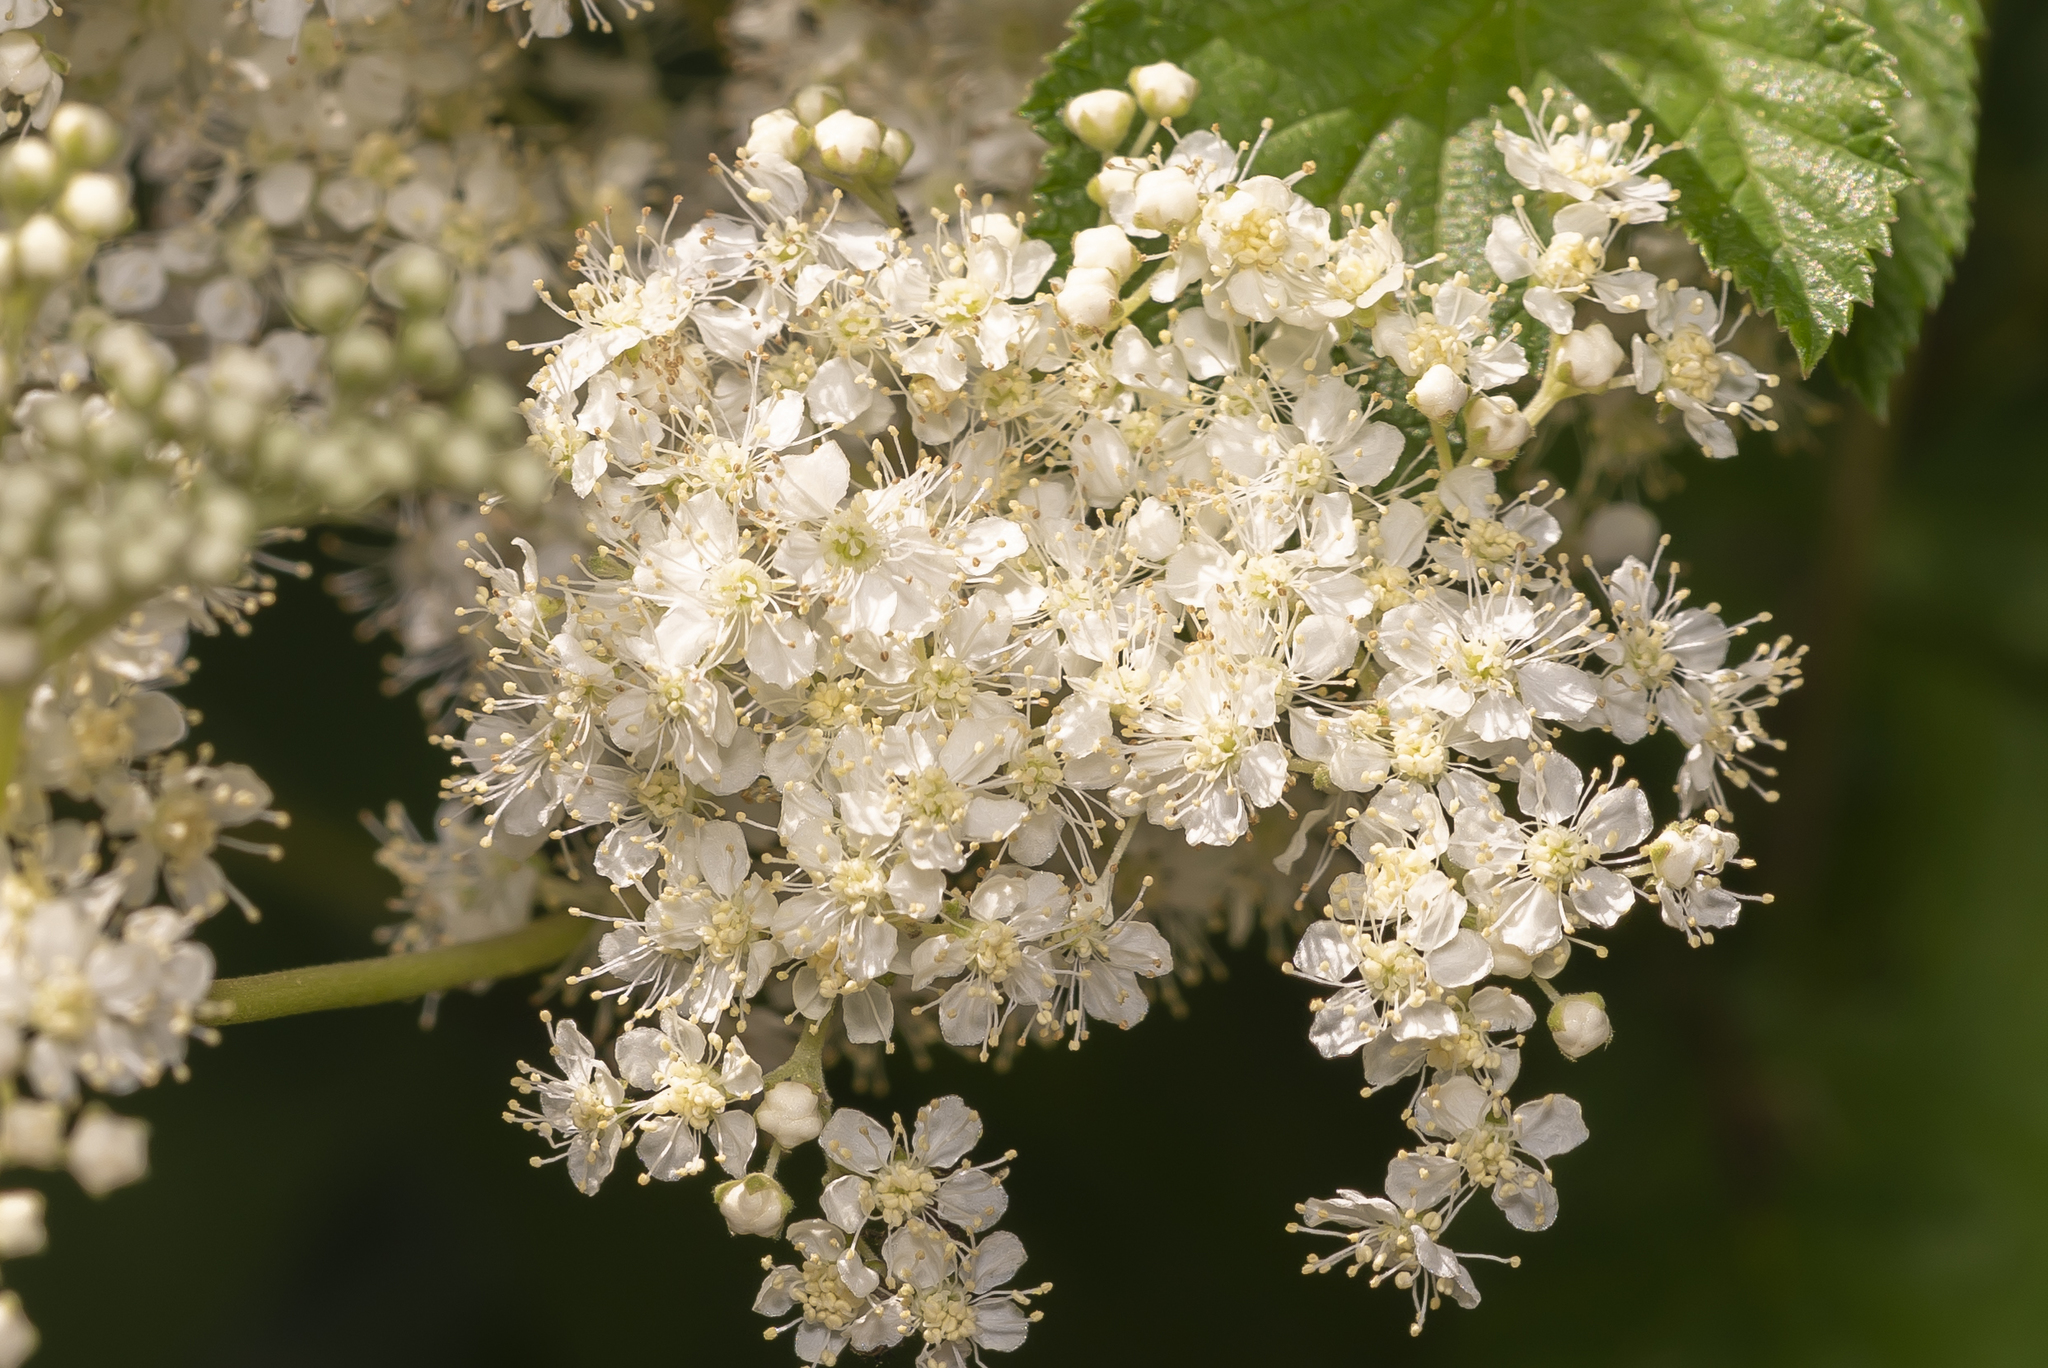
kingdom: Plantae
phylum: Tracheophyta
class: Magnoliopsida
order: Rosales
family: Rosaceae
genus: Filipendula
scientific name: Filipendula ulmaria
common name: Meadowsweet
